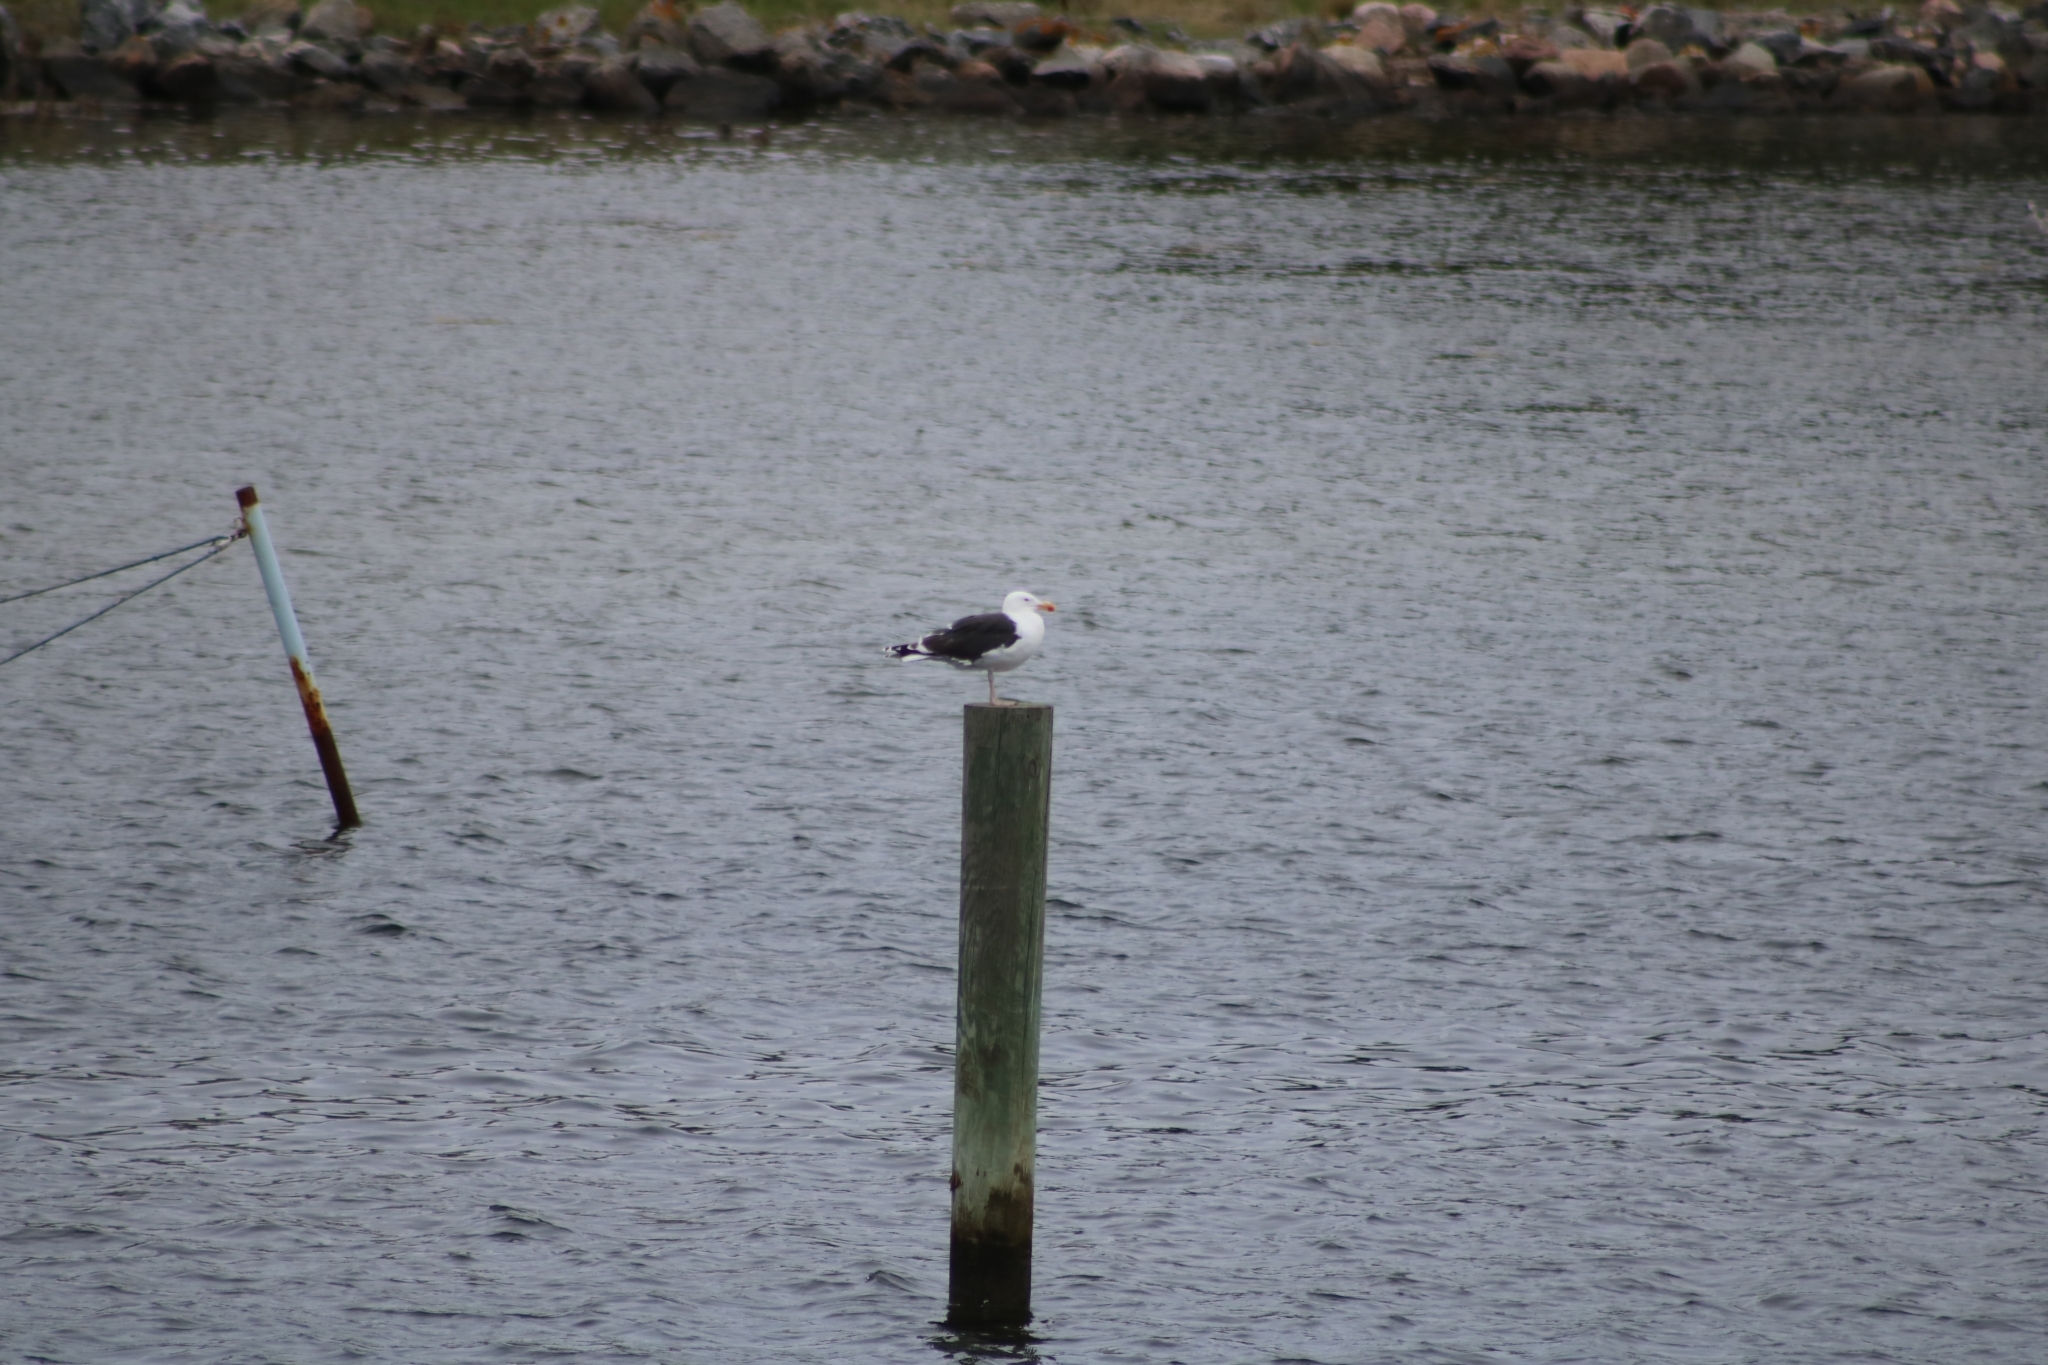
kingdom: Animalia
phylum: Chordata
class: Aves
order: Charadriiformes
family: Laridae
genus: Larus
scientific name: Larus marinus
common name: Great black-backed gull
